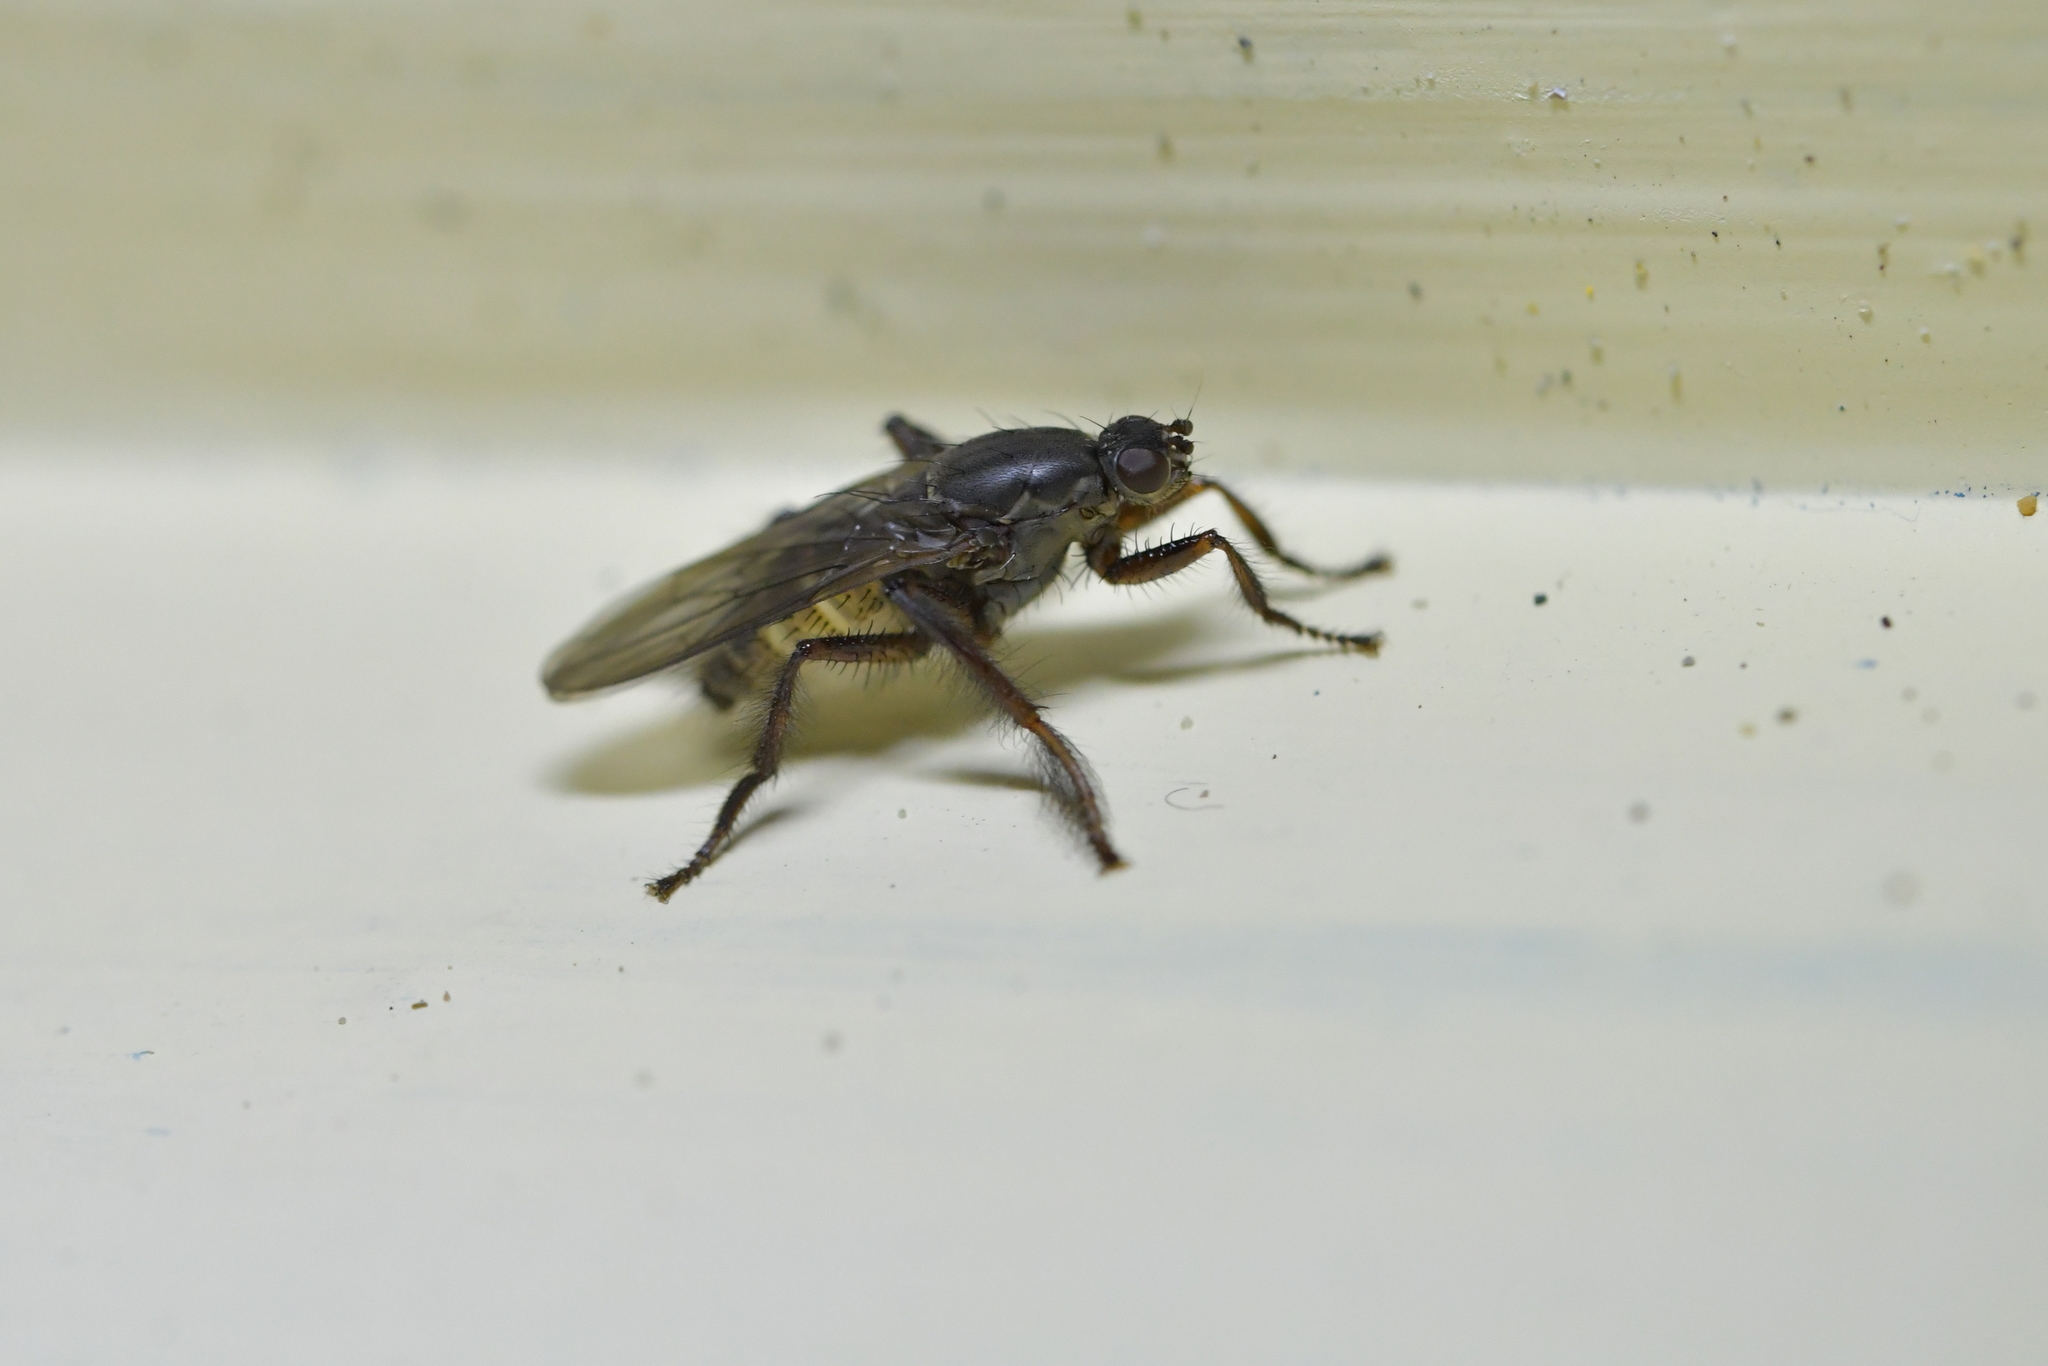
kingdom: Animalia
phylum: Arthropoda
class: Insecta
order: Diptera
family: Coelopidae
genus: Chaetocoelopa
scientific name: Chaetocoelopa littoralis
